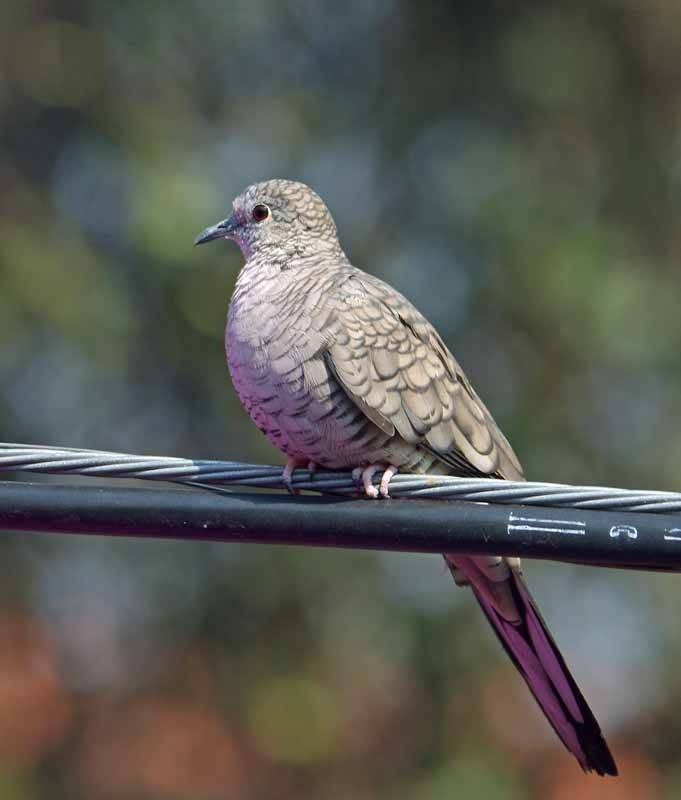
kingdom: Animalia
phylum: Chordata
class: Aves
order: Columbiformes
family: Columbidae
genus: Columbina
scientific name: Columbina inca
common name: Inca dove
